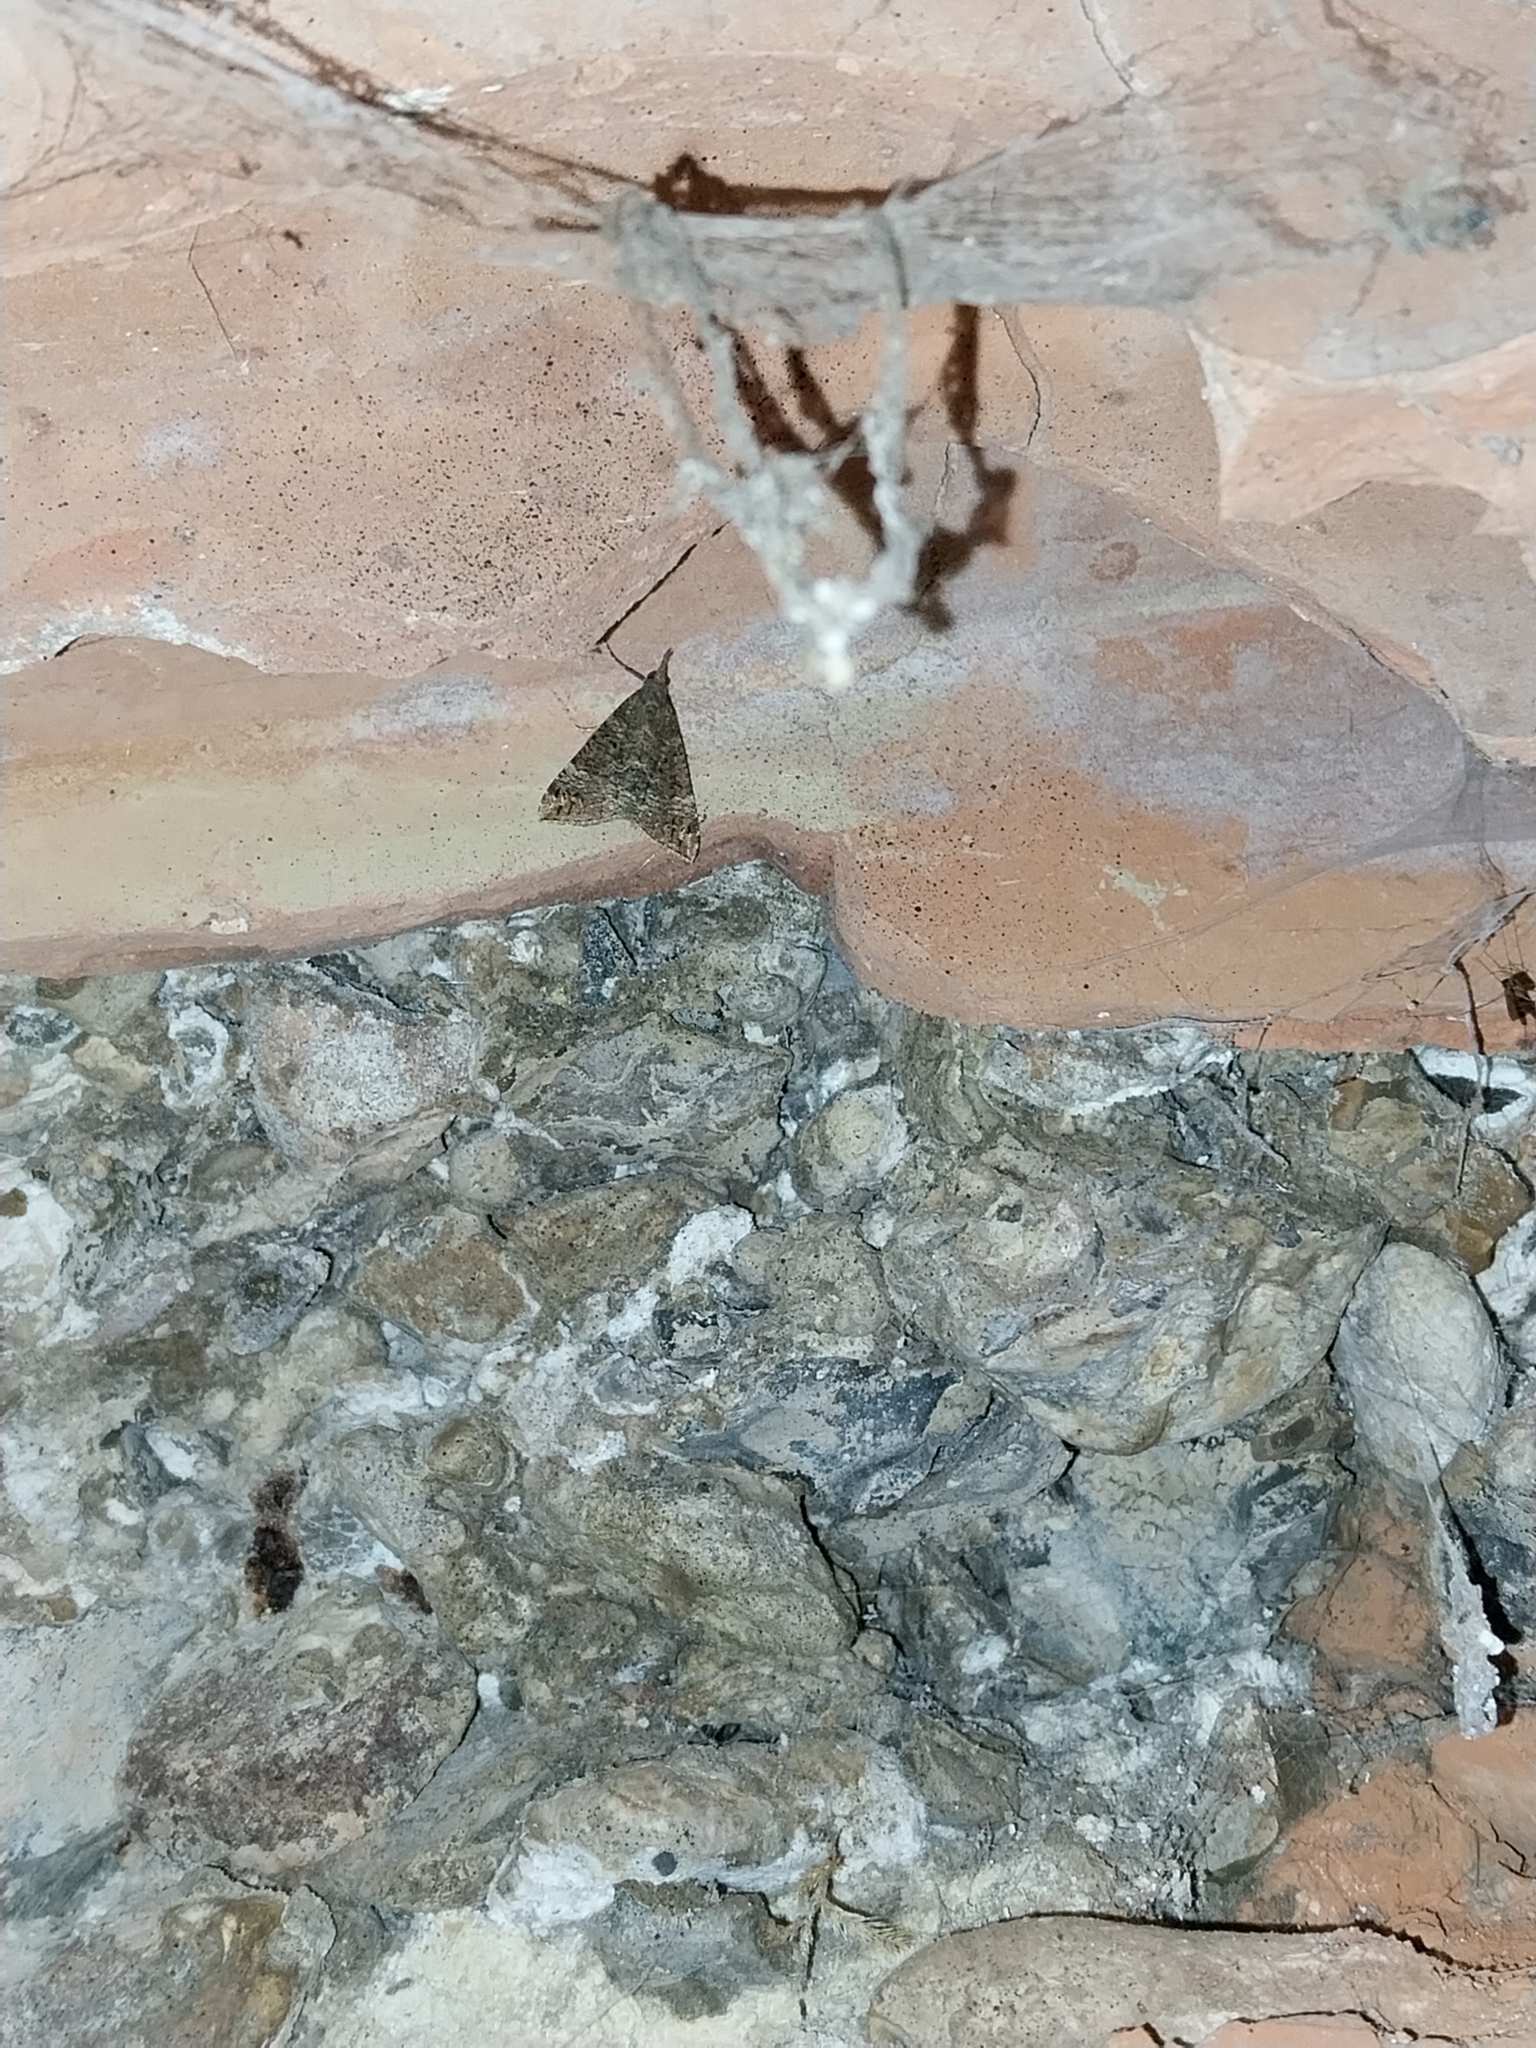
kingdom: Animalia
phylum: Arthropoda
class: Insecta
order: Lepidoptera
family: Erebidae
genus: Hypena
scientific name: Hypena obsitalis
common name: Bloxworth snout
